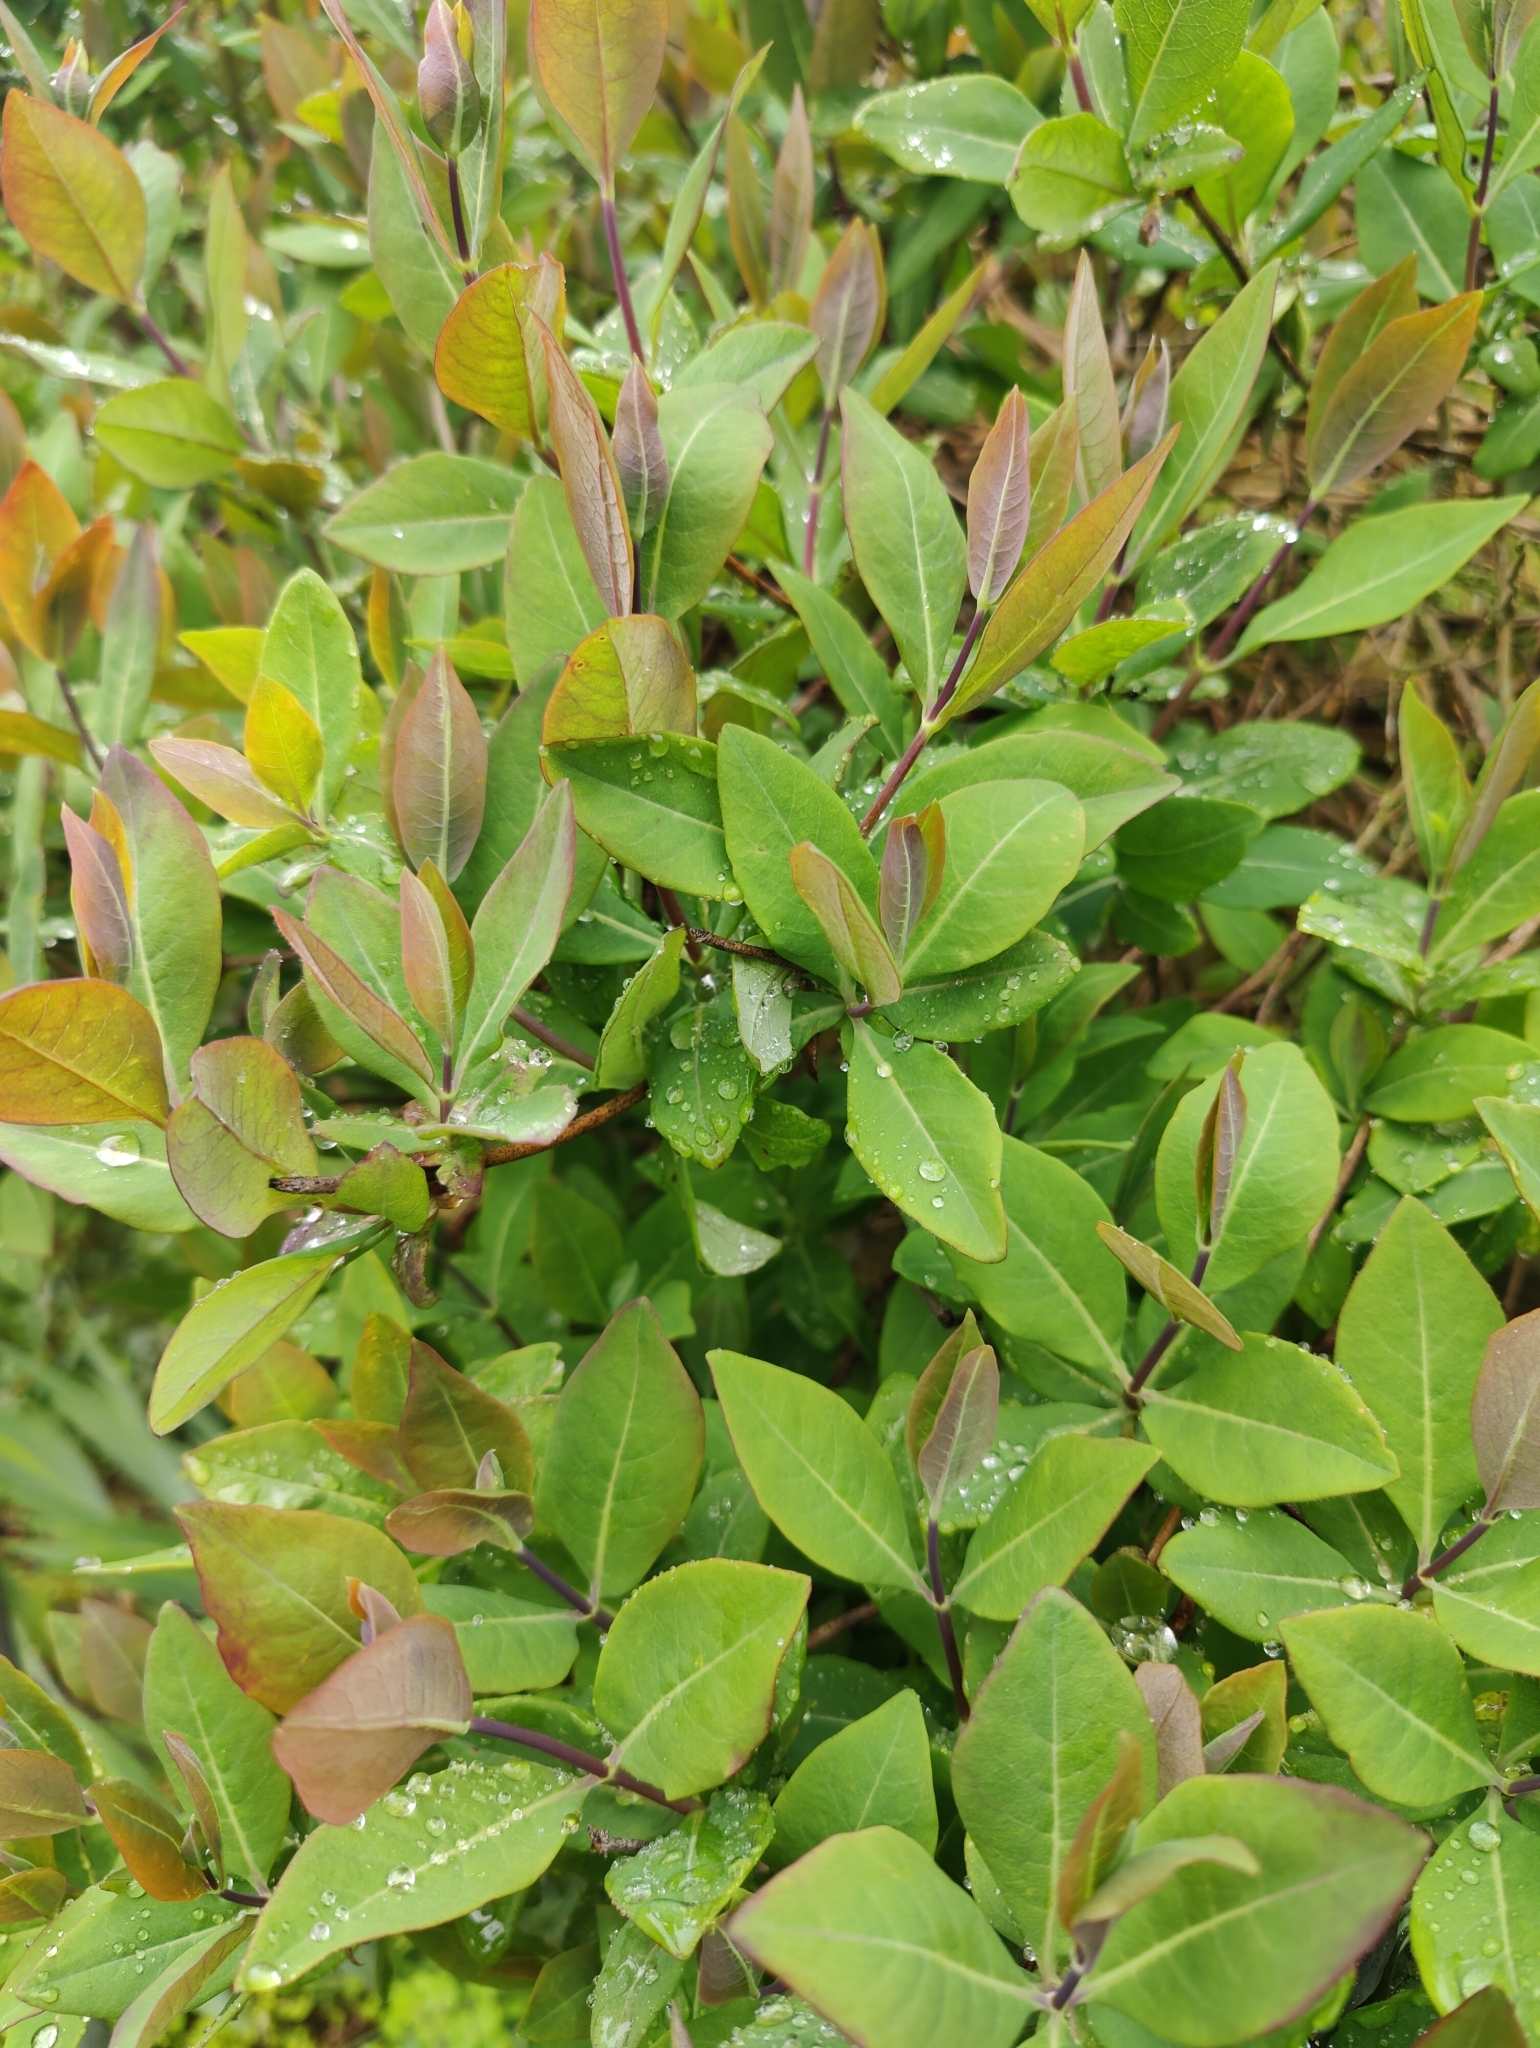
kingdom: Plantae
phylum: Tracheophyta
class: Magnoliopsida
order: Dipsacales
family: Caprifoliaceae
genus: Lonicera
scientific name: Lonicera periclymenum
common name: European honeysuckle
